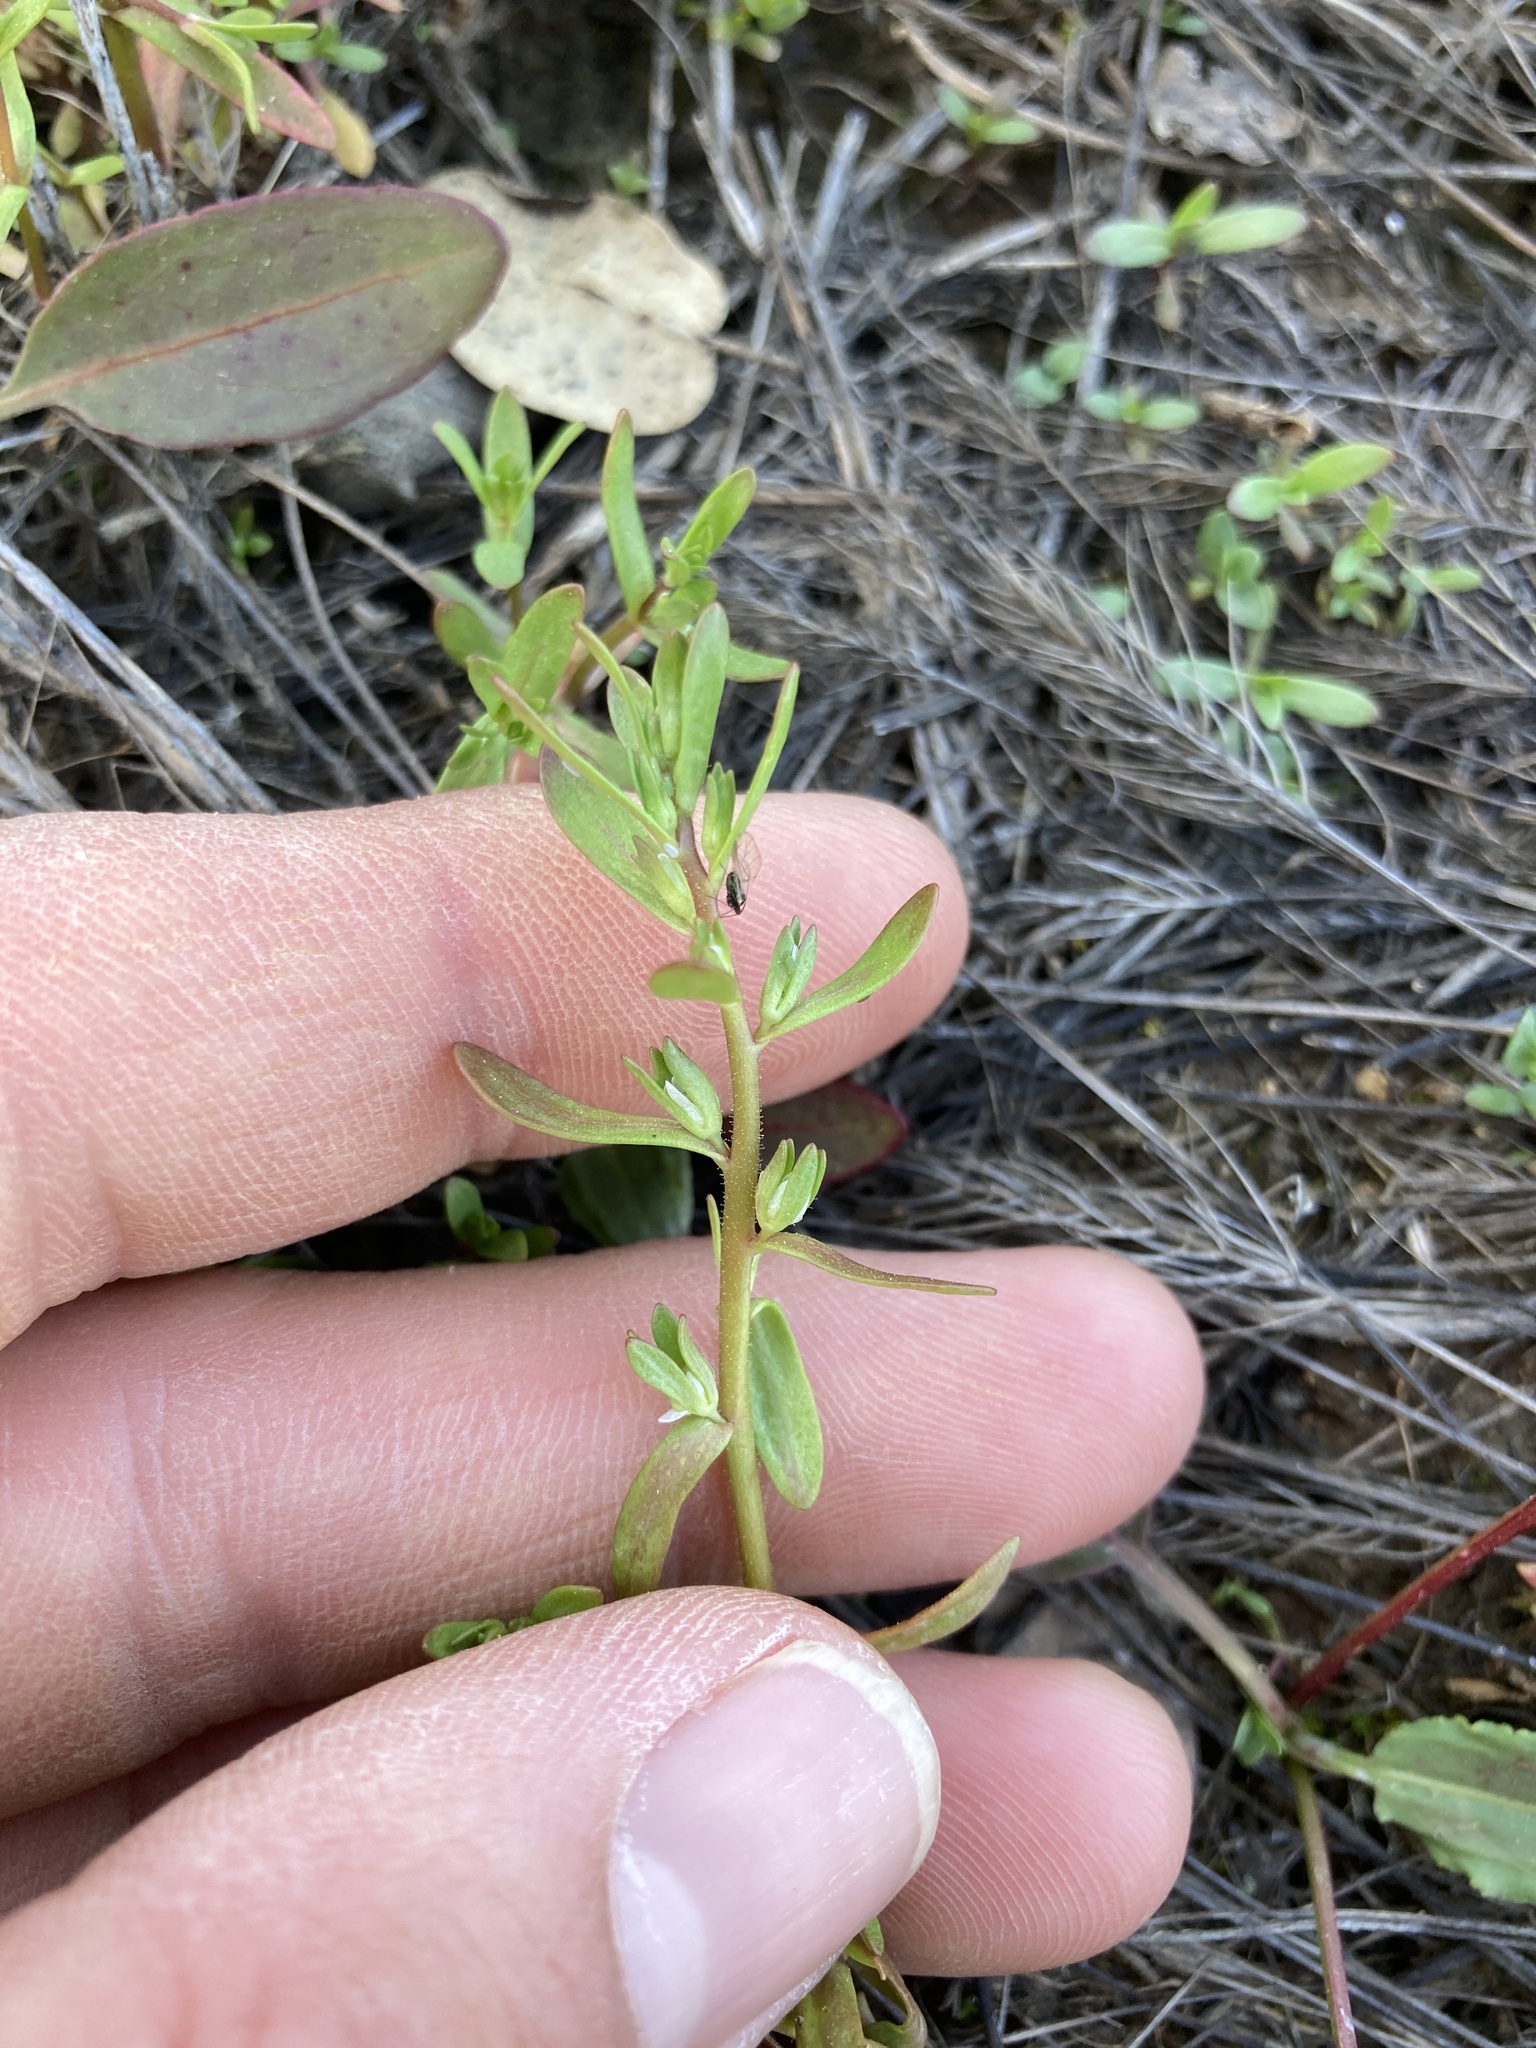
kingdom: Plantae
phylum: Tracheophyta
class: Magnoliopsida
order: Lamiales
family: Plantaginaceae
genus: Veronica
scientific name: Veronica peregrina
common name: Neckweed
